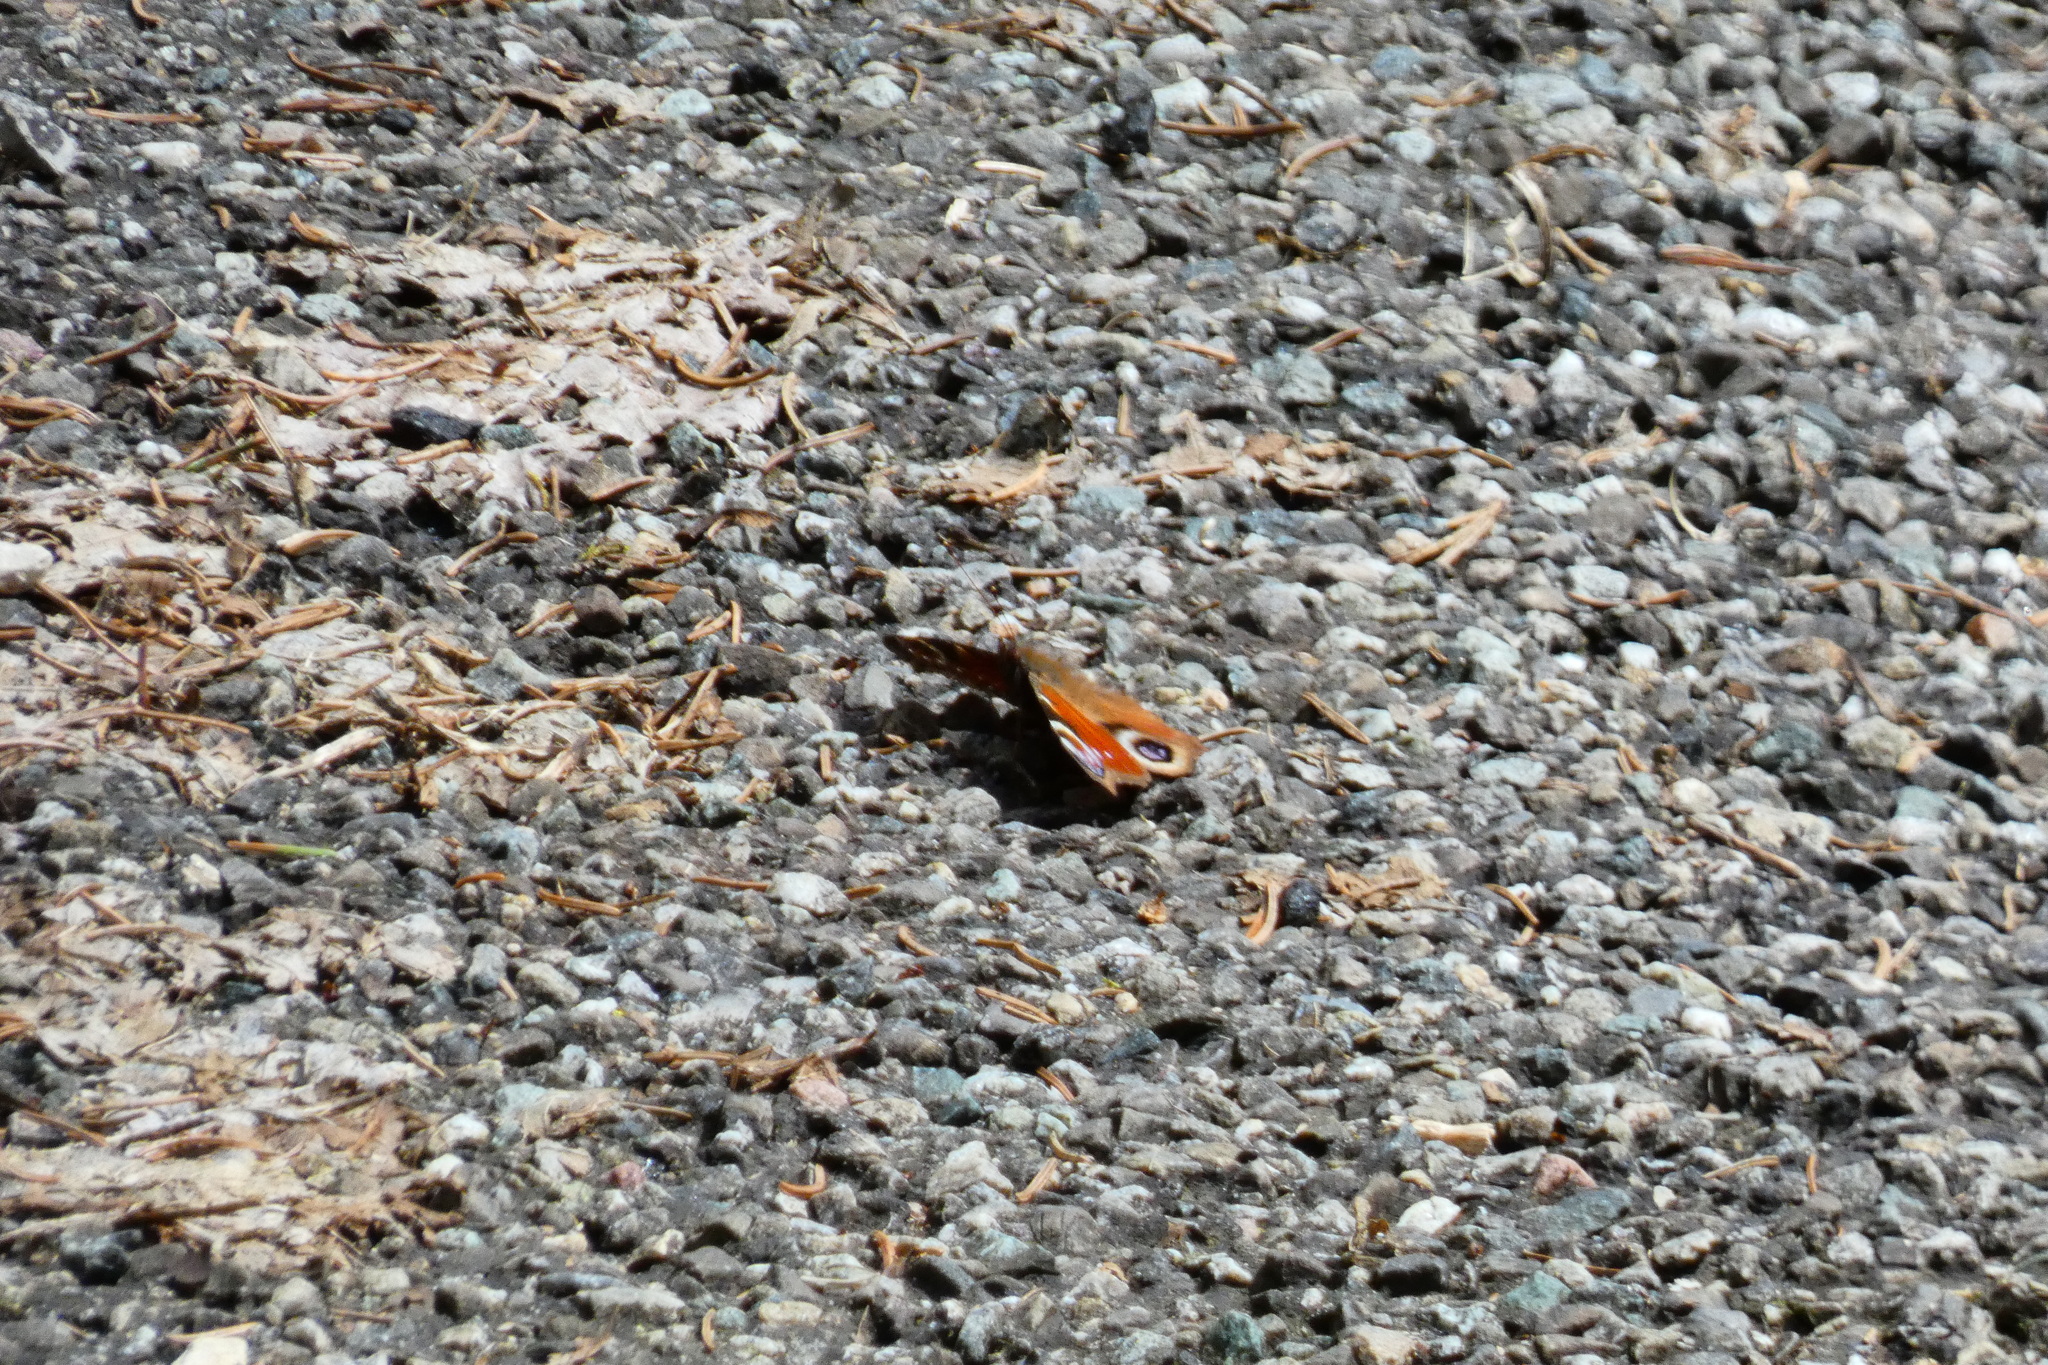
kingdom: Animalia
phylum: Arthropoda
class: Insecta
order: Lepidoptera
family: Nymphalidae
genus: Aglais
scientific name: Aglais io
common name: Peacock
